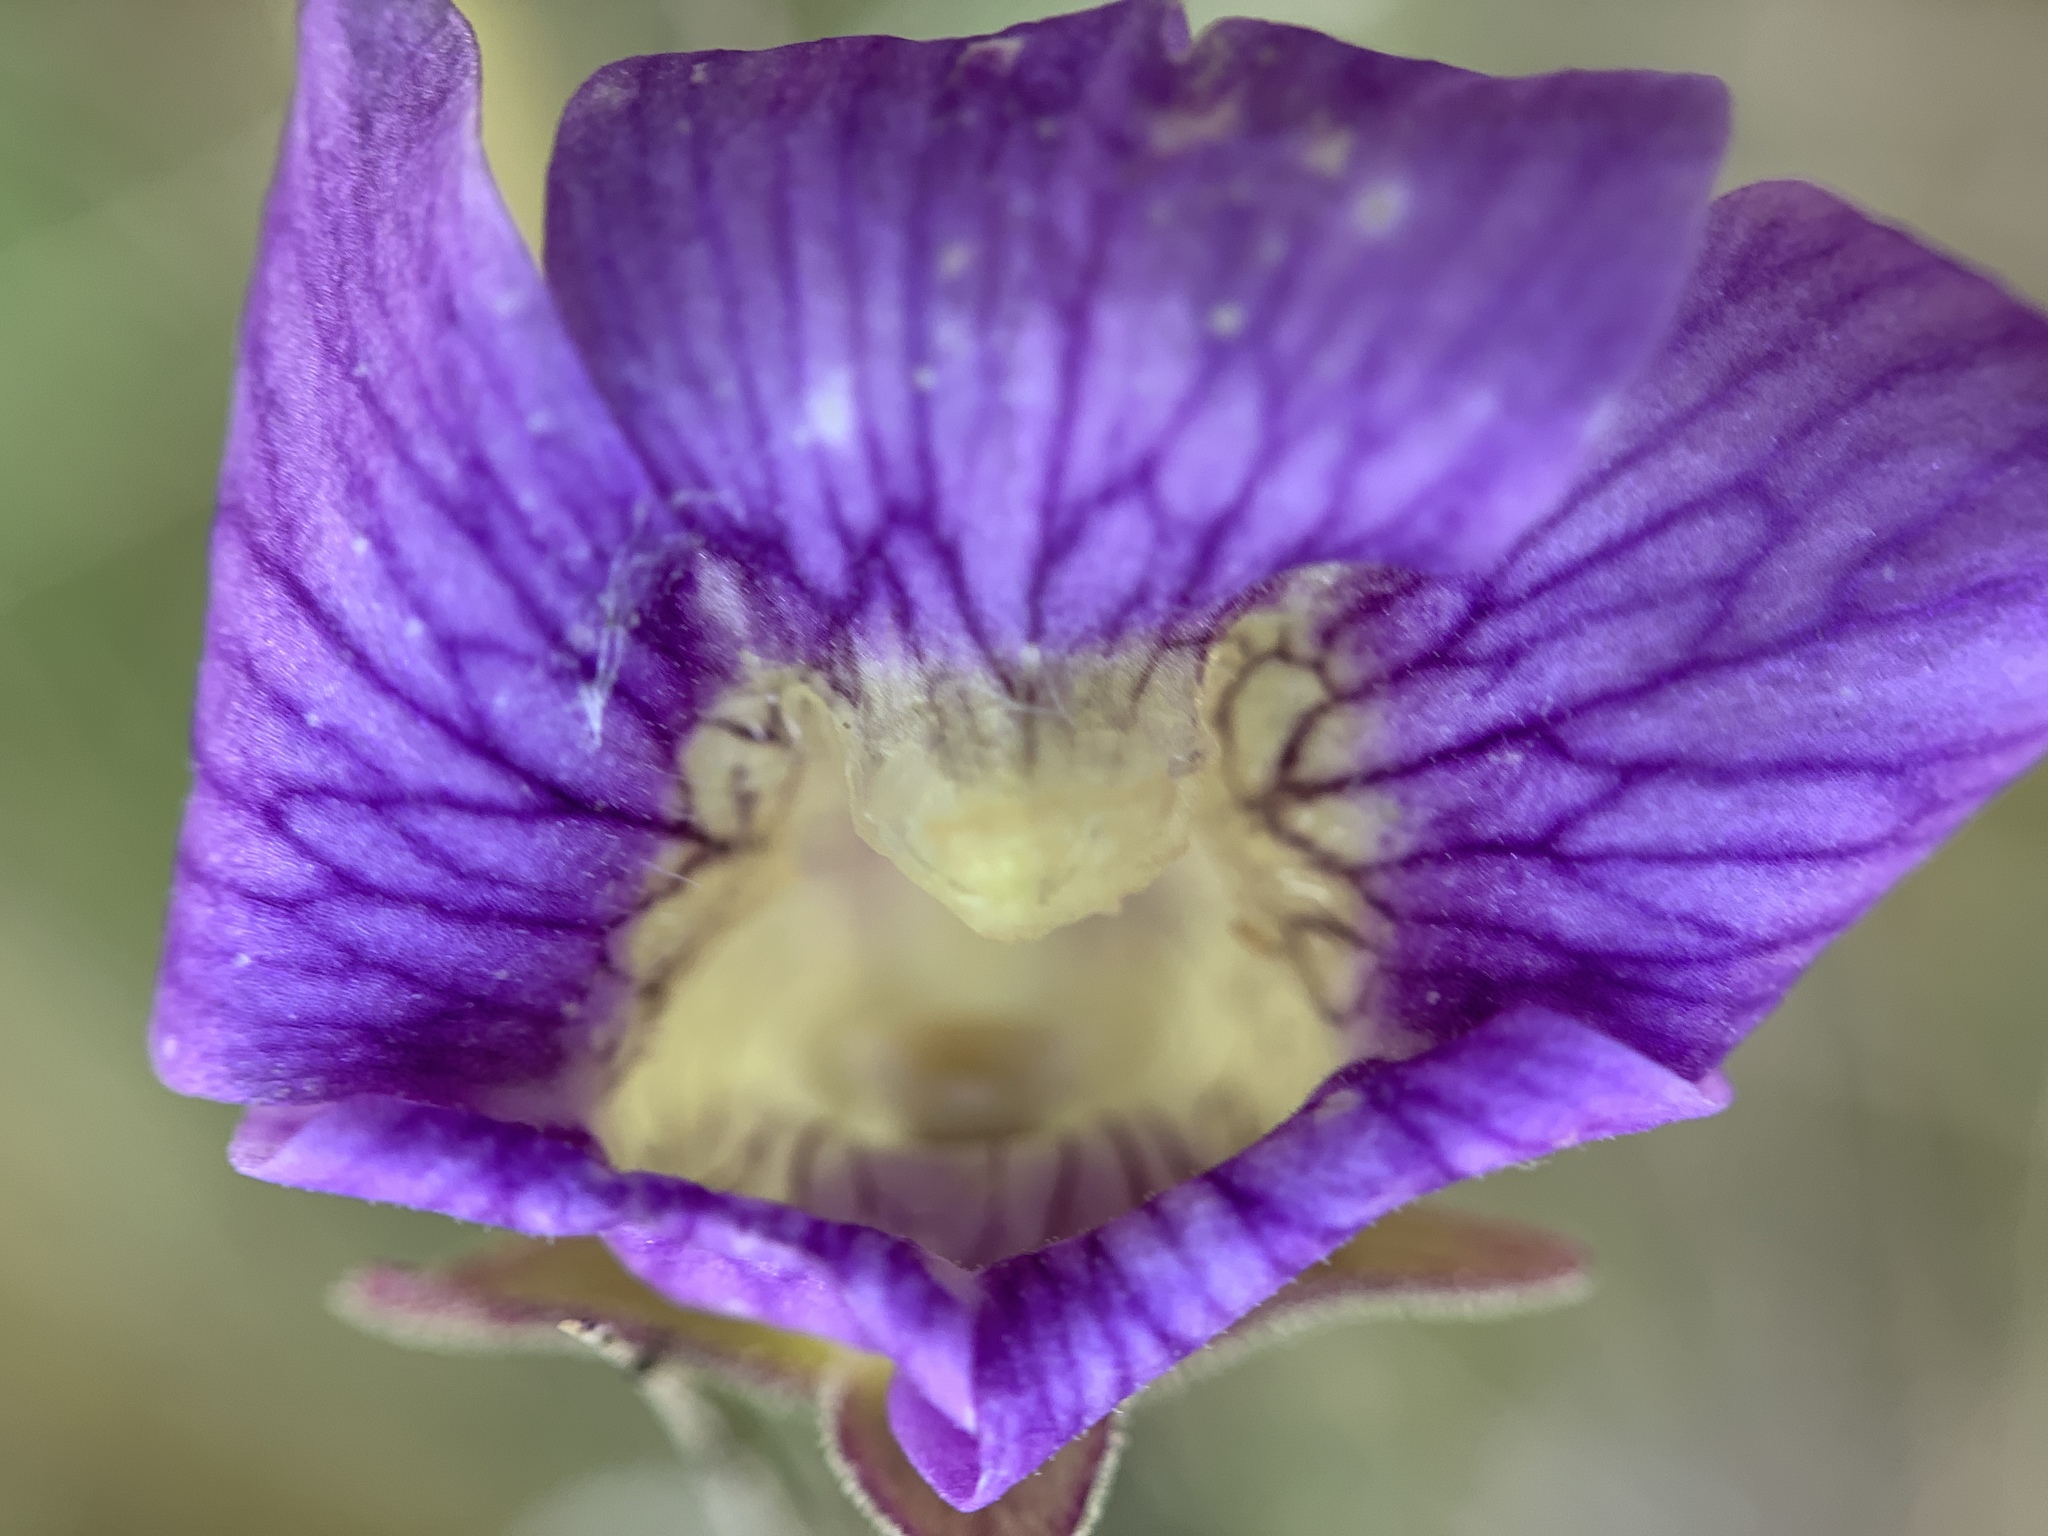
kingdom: Plantae
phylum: Tracheophyta
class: Magnoliopsida
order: Lamiales
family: Lentibulariaceae
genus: Pinguicula
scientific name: Pinguicula caerulea
